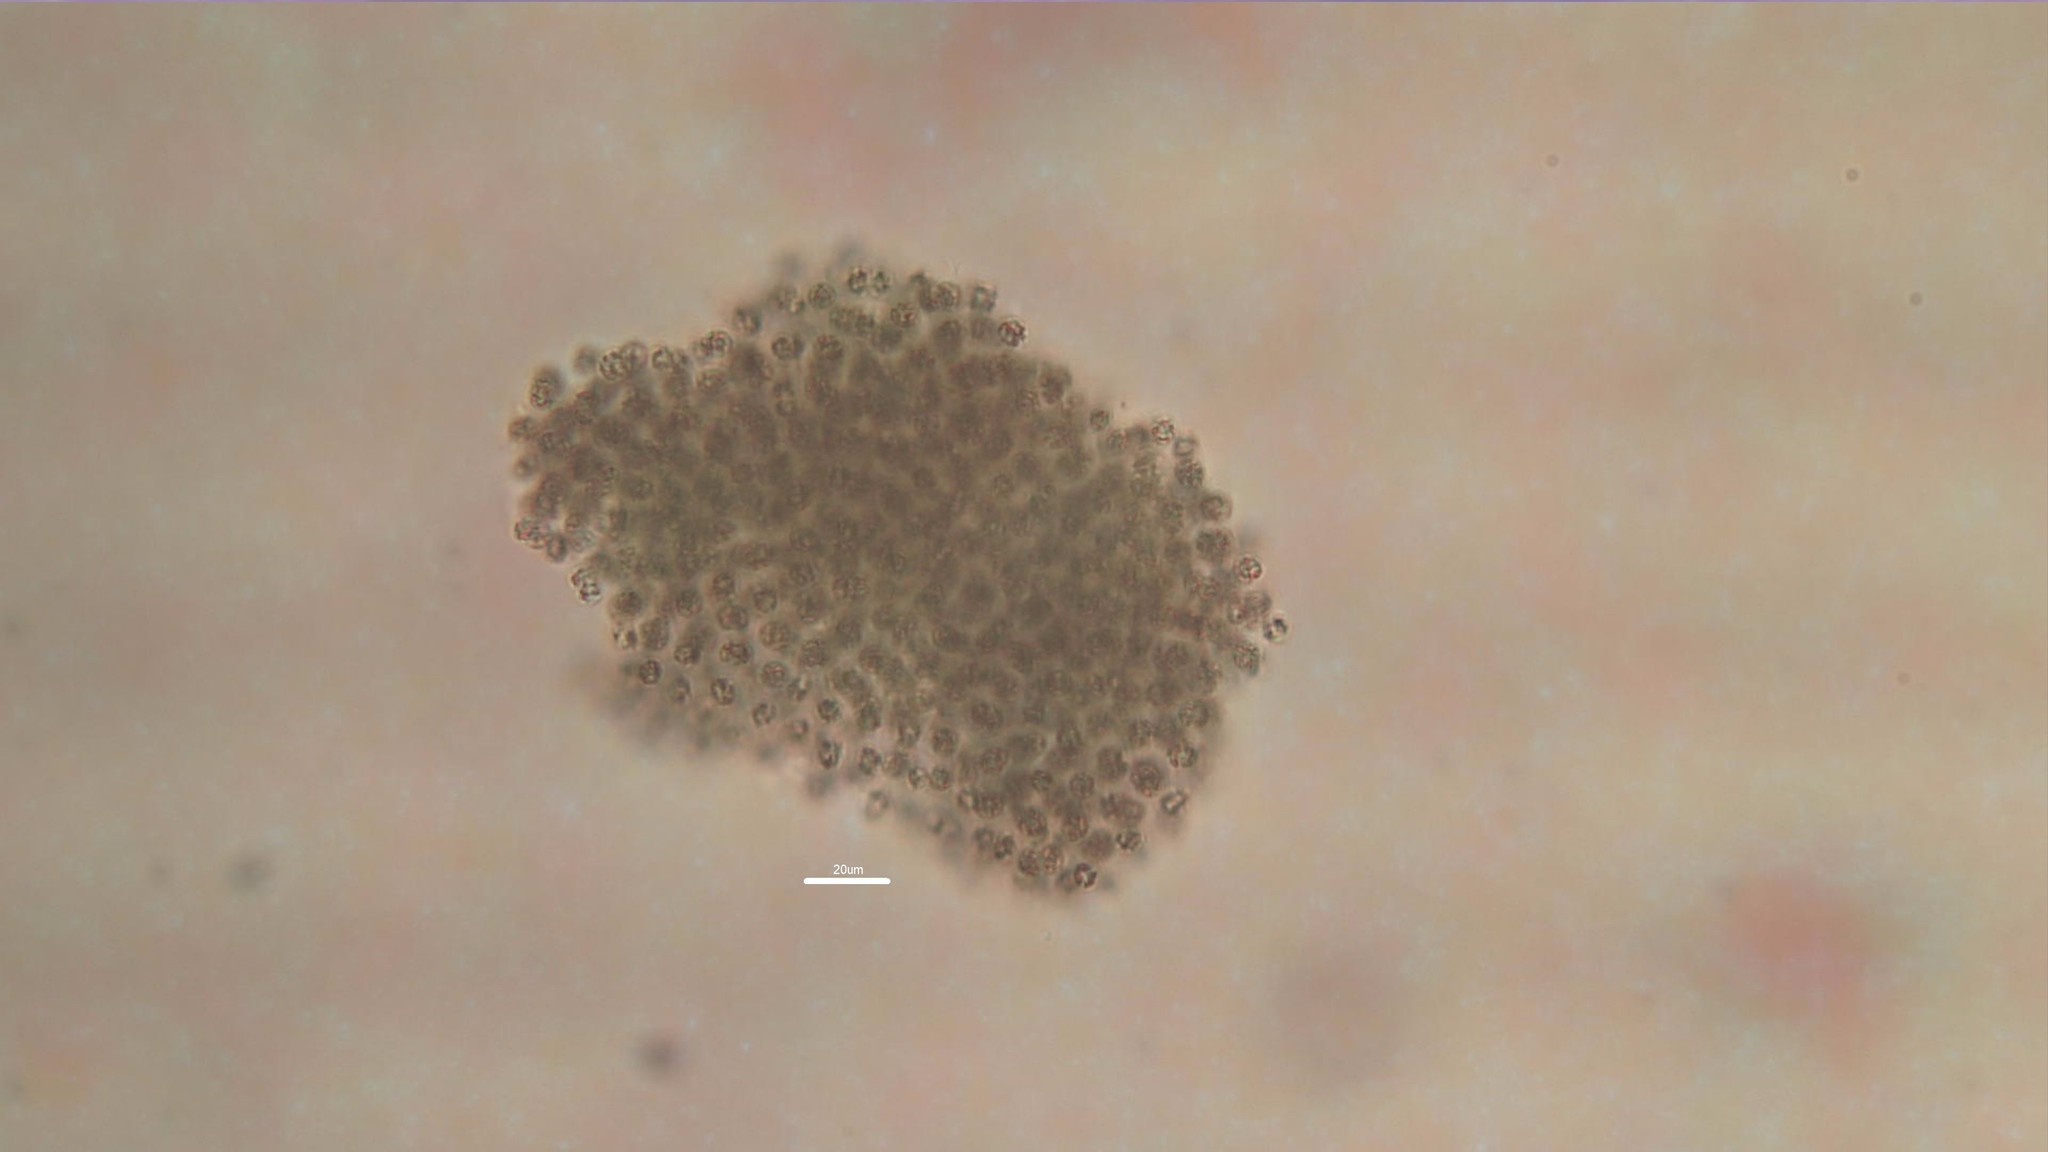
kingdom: Bacteria
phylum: Cyanobacteria
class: Cyanobacteriia
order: Cyanobacteriales
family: Microcystaceae
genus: Microcystis
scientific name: Microcystis aeruginosa
